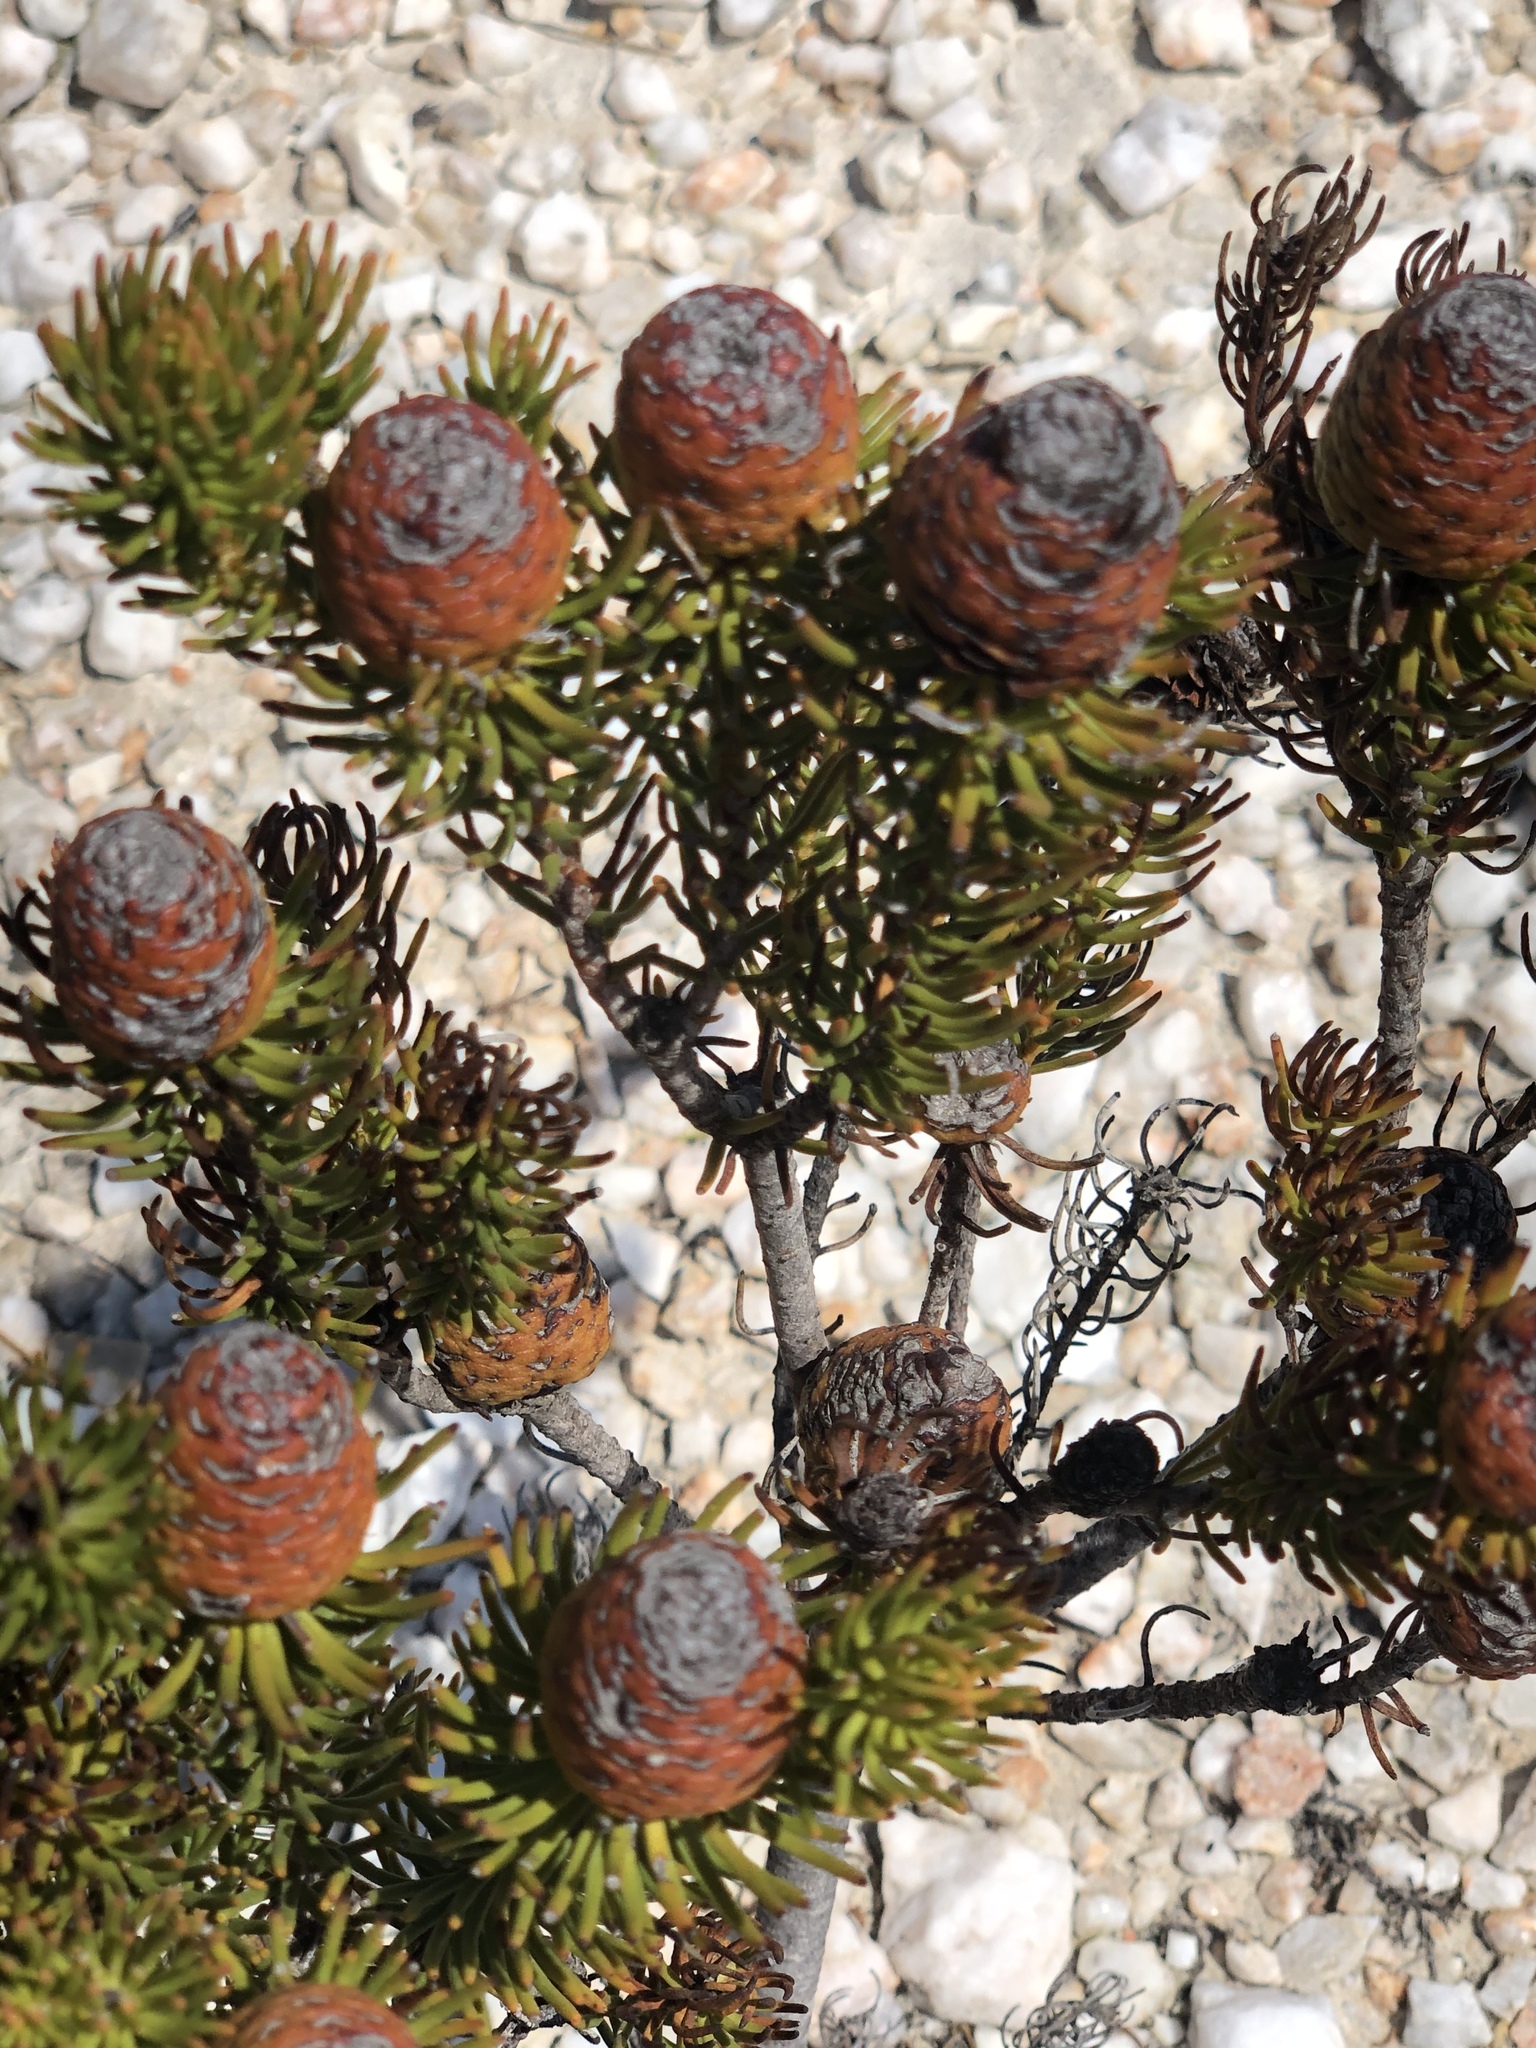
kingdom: Plantae
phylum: Tracheophyta
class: Magnoliopsida
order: Proteales
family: Proteaceae
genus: Leucadendron
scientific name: Leucadendron teretifolium
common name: Needle-leaf conebush
